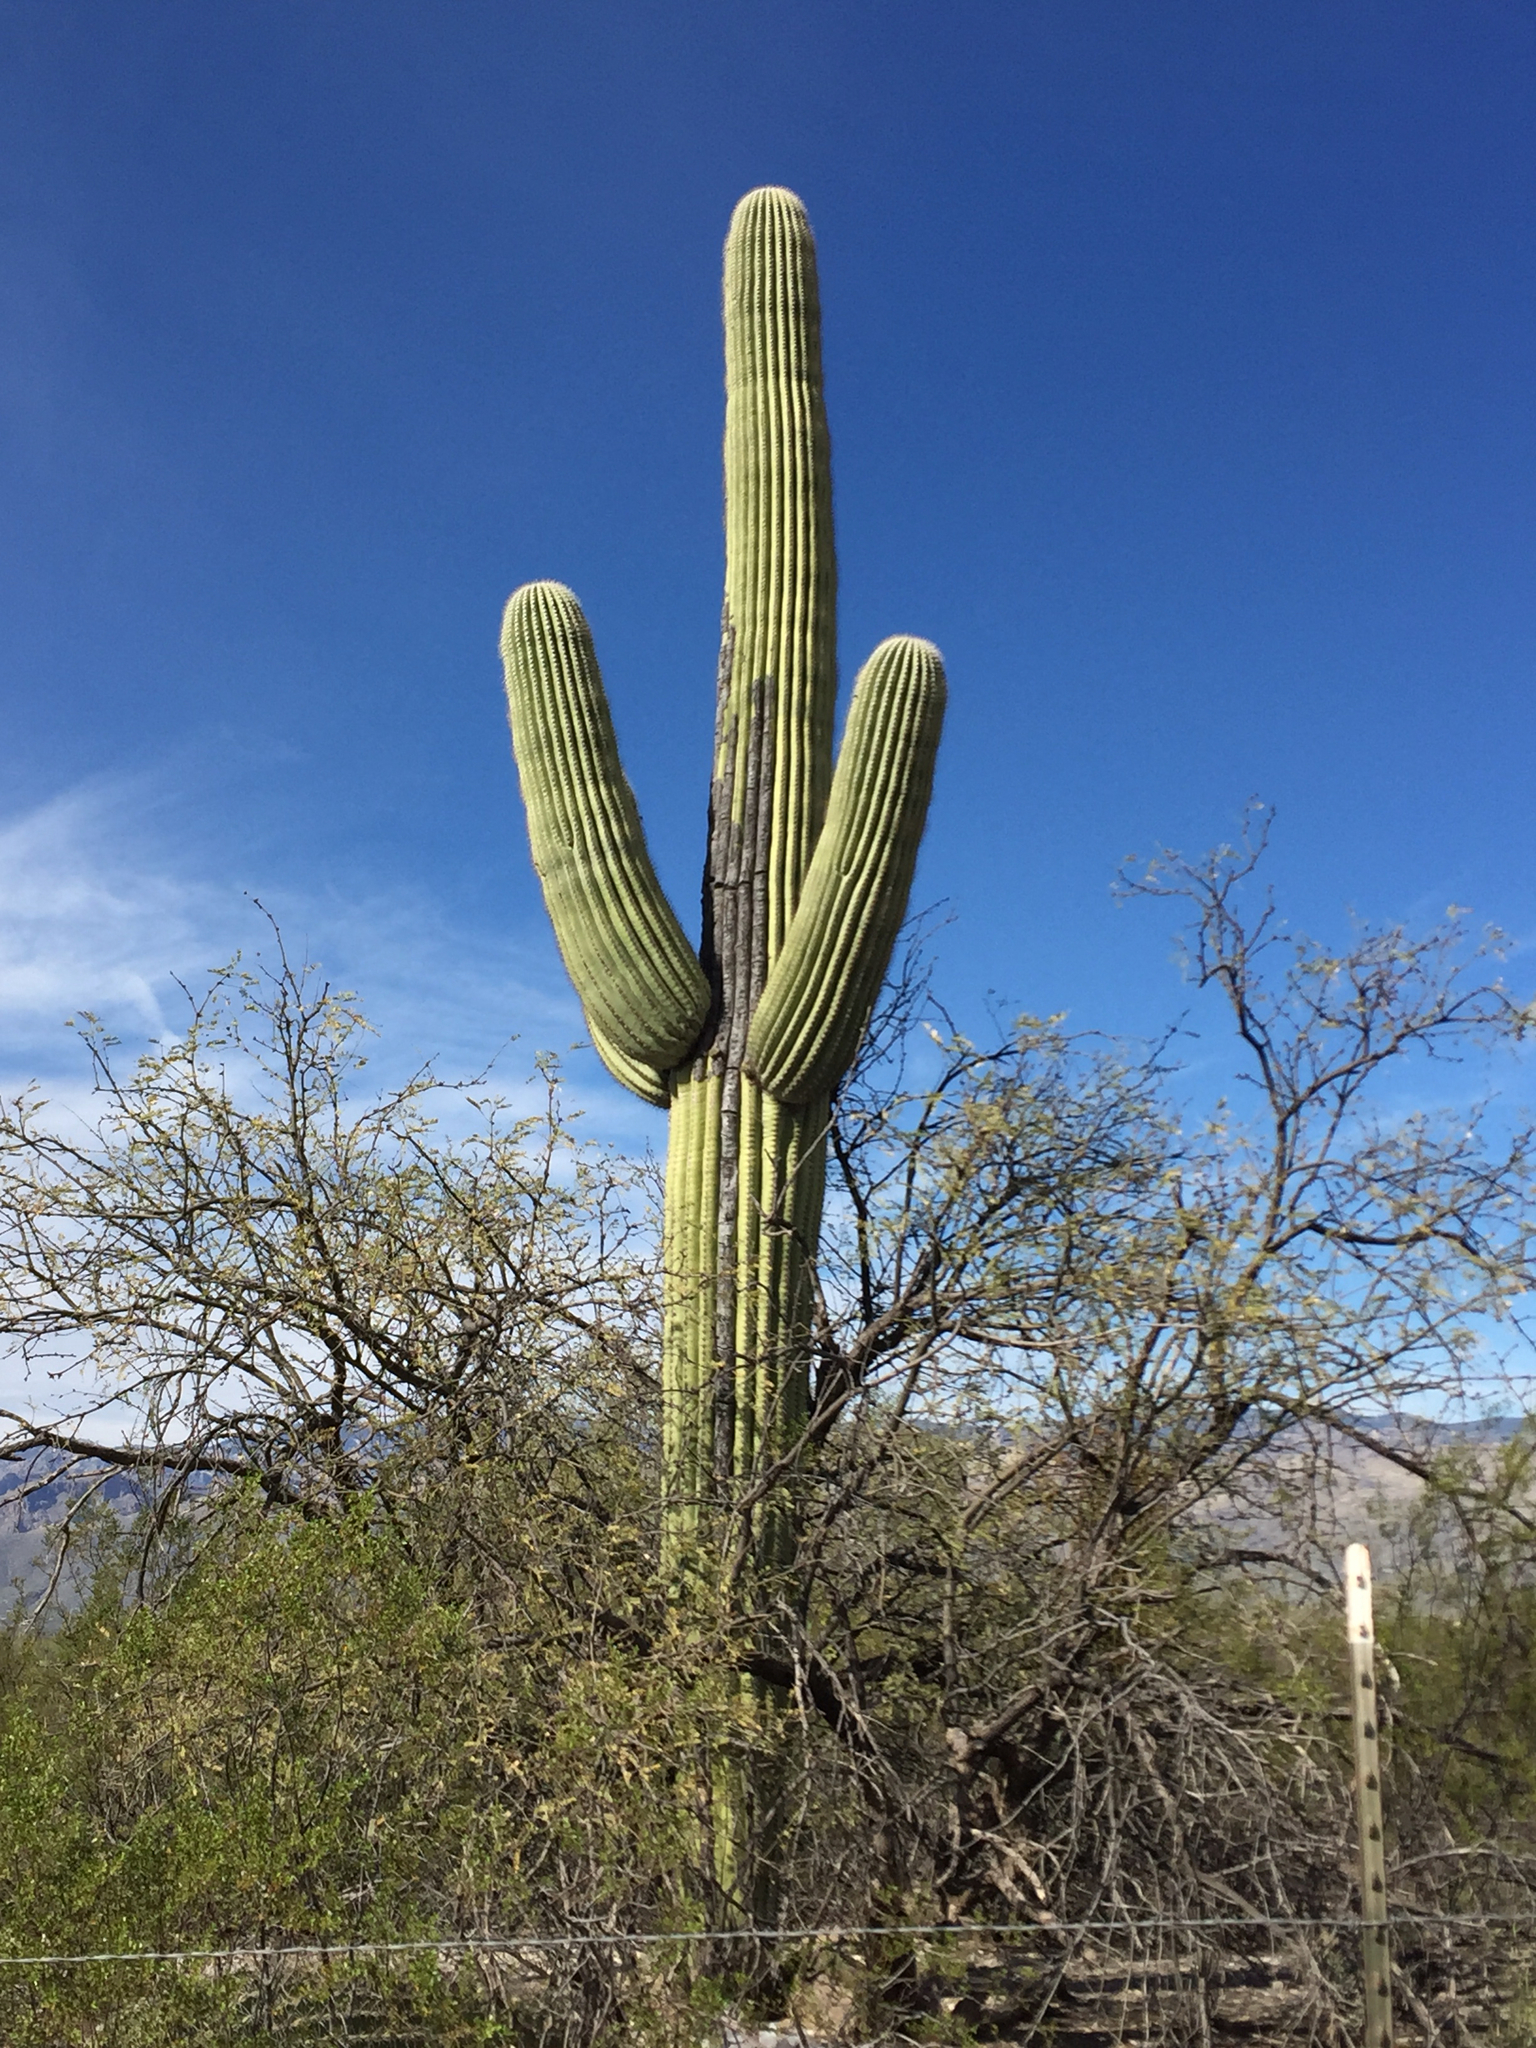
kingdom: Plantae
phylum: Tracheophyta
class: Magnoliopsida
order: Caryophyllales
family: Cactaceae
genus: Carnegiea
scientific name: Carnegiea gigantea
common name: Saguaro
